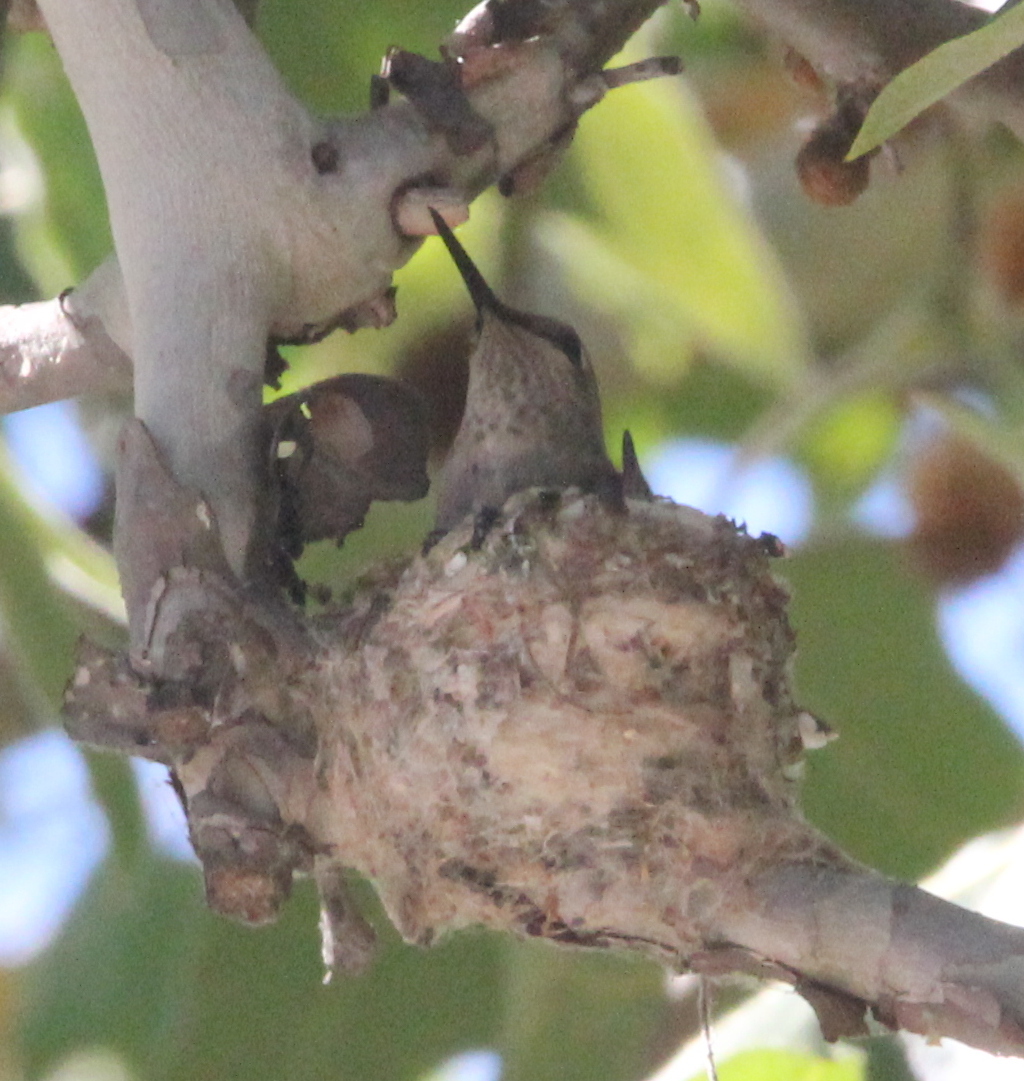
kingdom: Animalia
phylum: Chordata
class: Aves
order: Apodiformes
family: Trochilidae
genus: Calypte
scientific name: Calypte anna
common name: Anna's hummingbird
